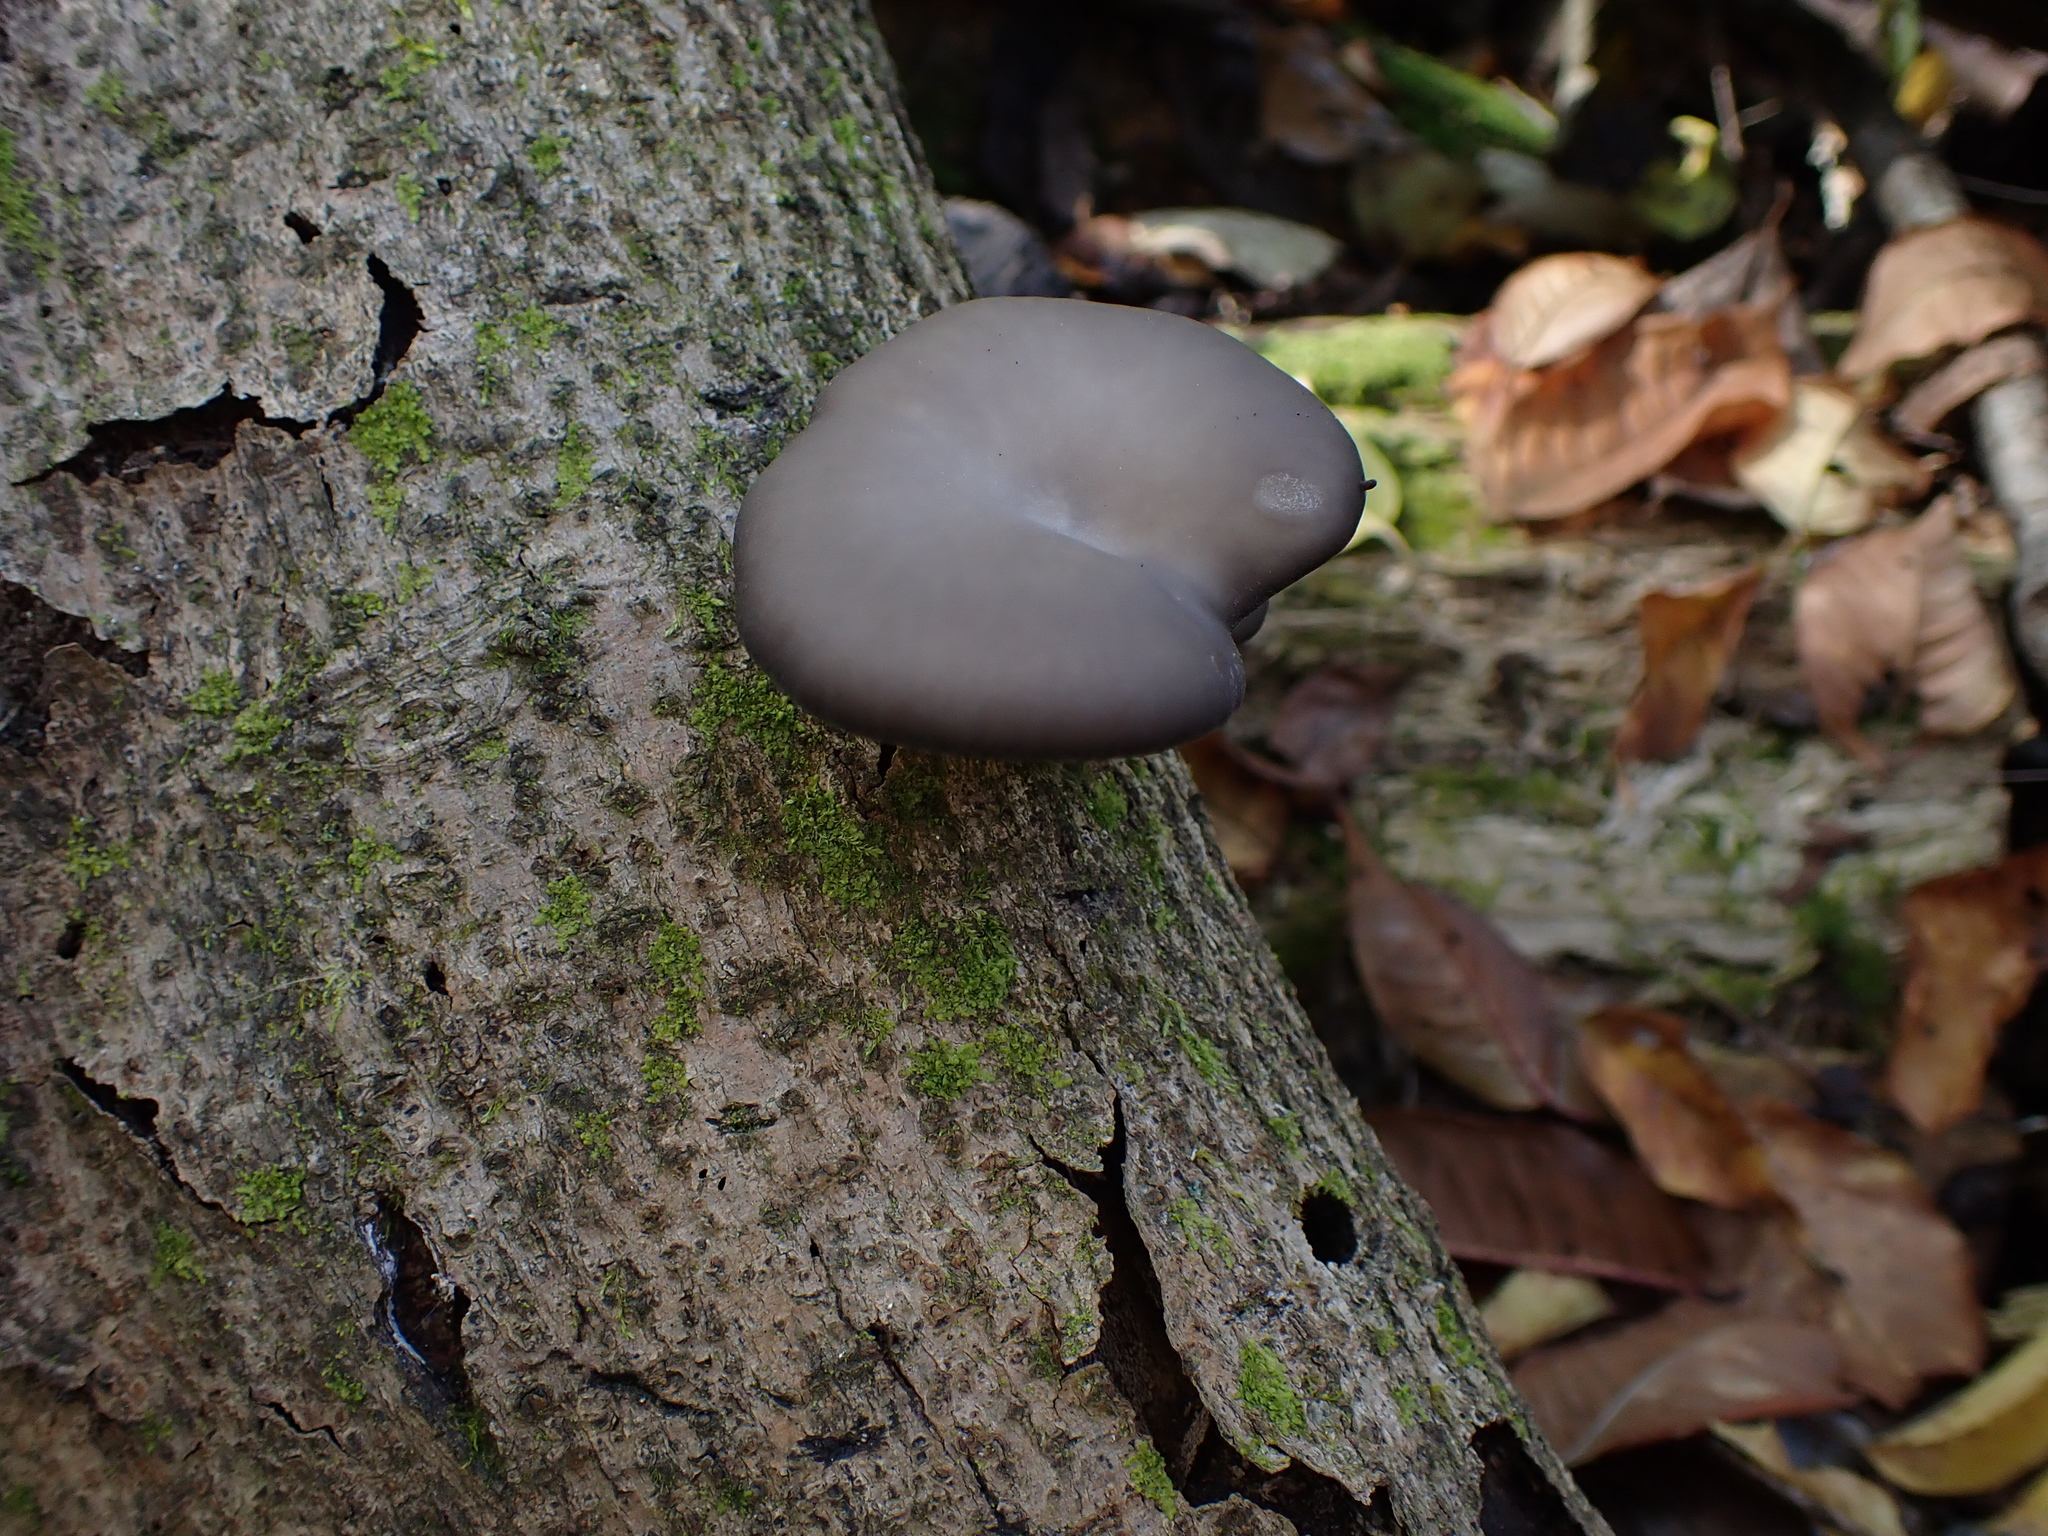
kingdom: Fungi
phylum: Basidiomycota
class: Agaricomycetes
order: Agaricales
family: Pleurotaceae
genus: Pleurotus
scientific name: Pleurotus ostreatus
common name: Oyster mushroom
